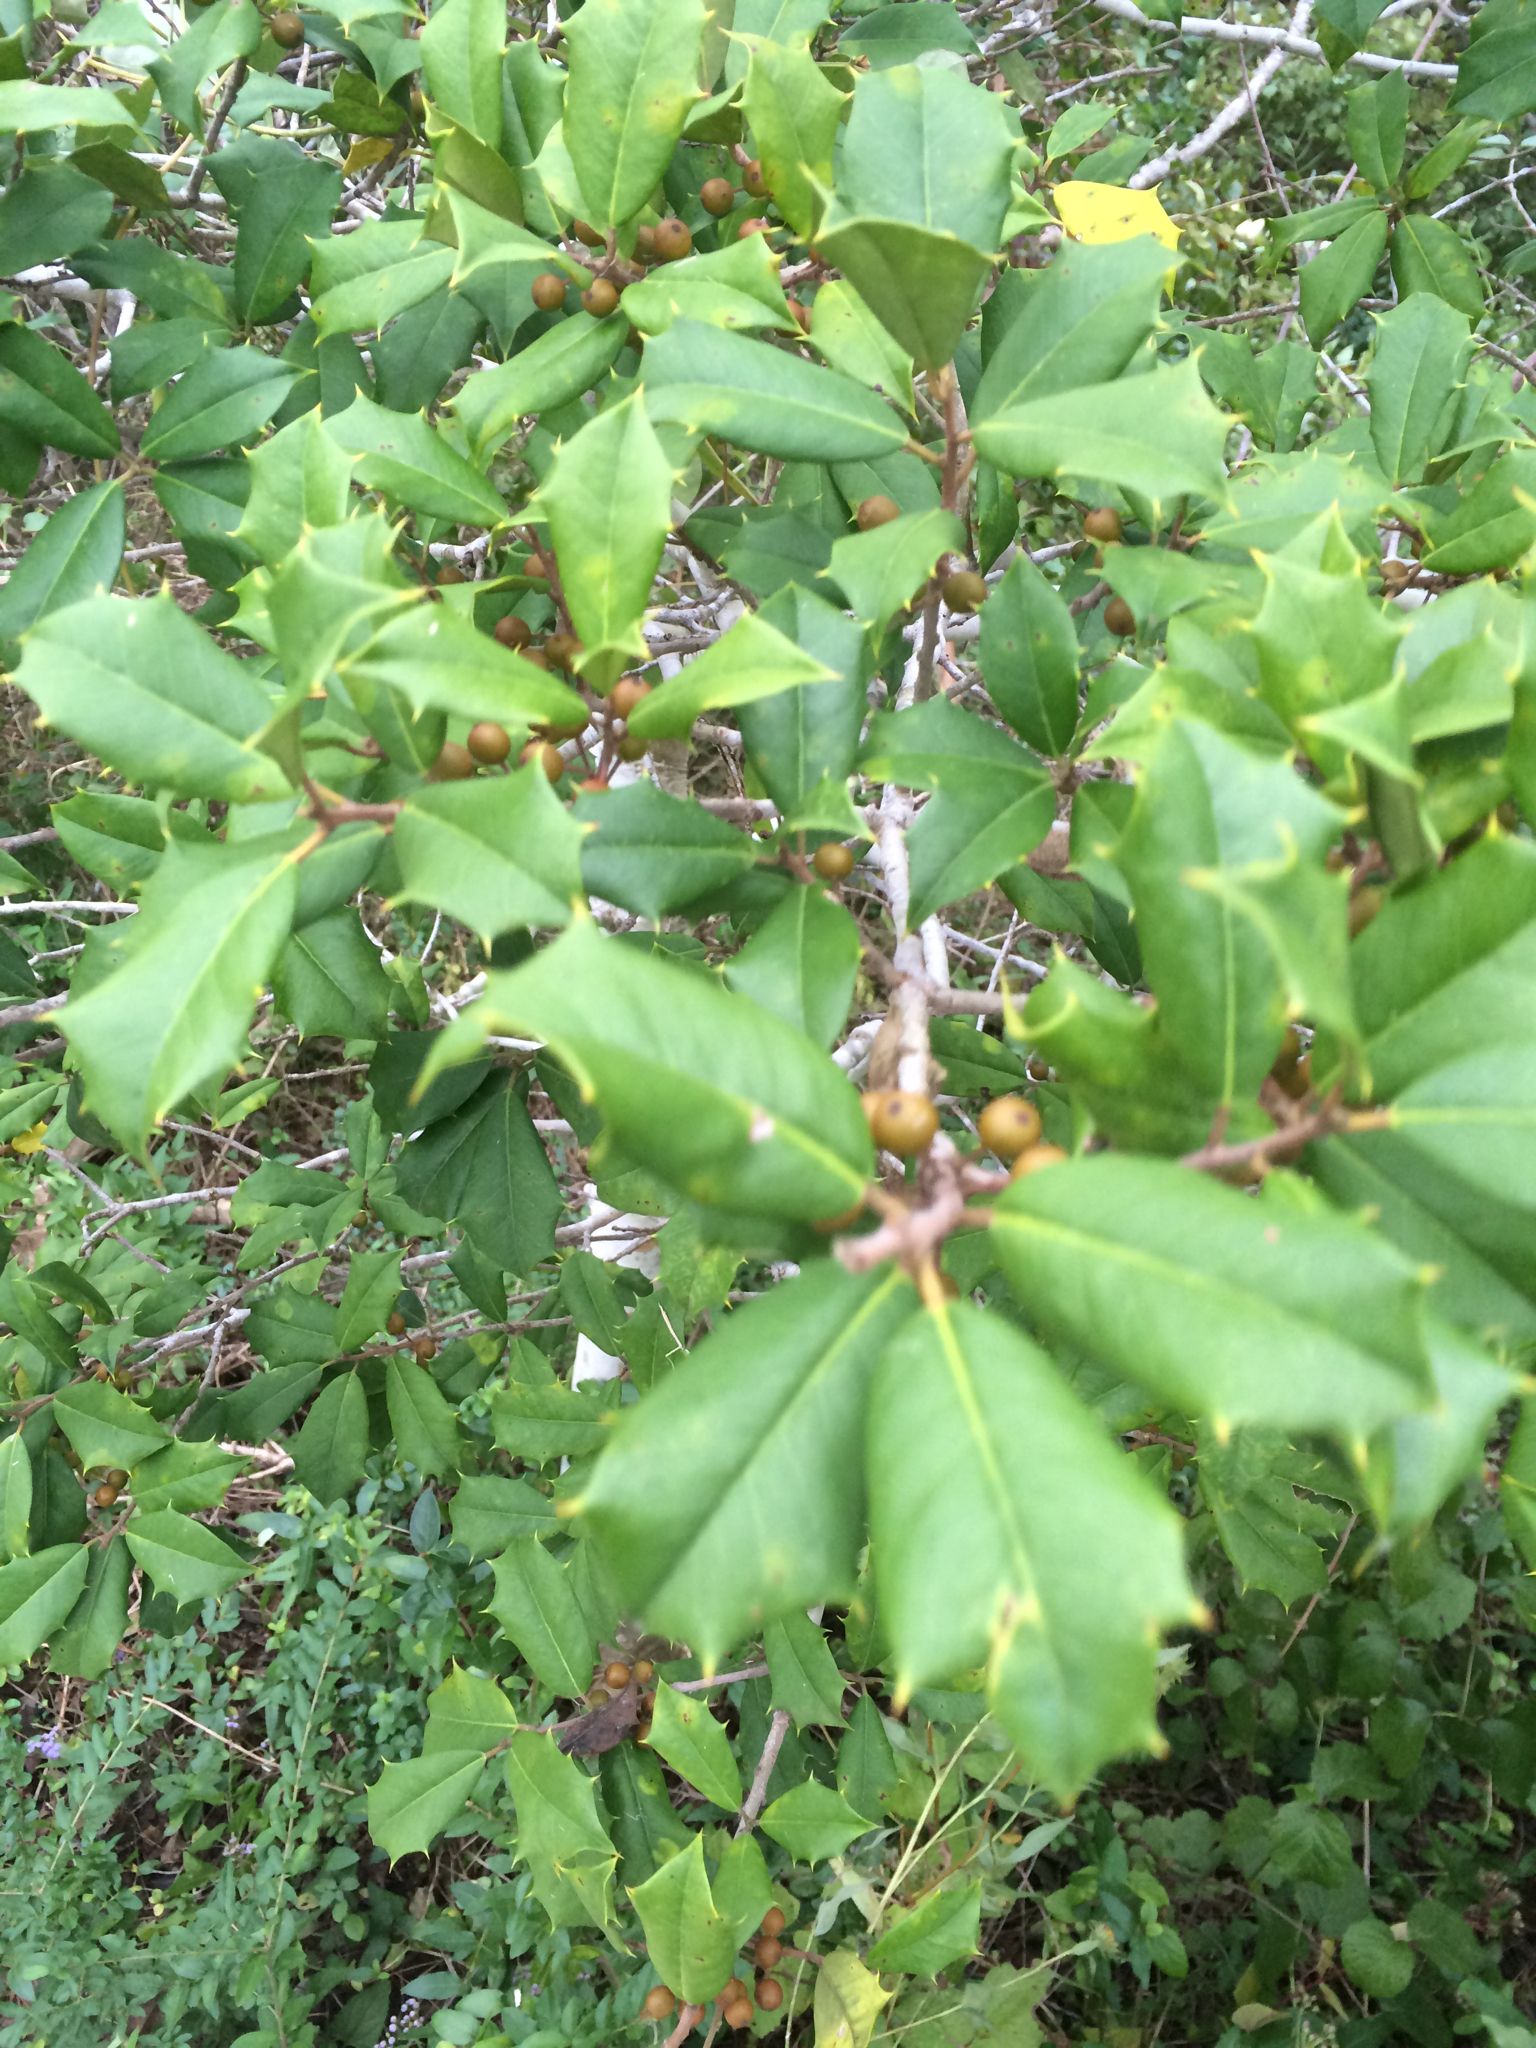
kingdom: Plantae
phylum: Tracheophyta
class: Magnoliopsida
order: Aquifoliales
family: Aquifoliaceae
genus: Ilex
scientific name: Ilex opaca
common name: American holly
